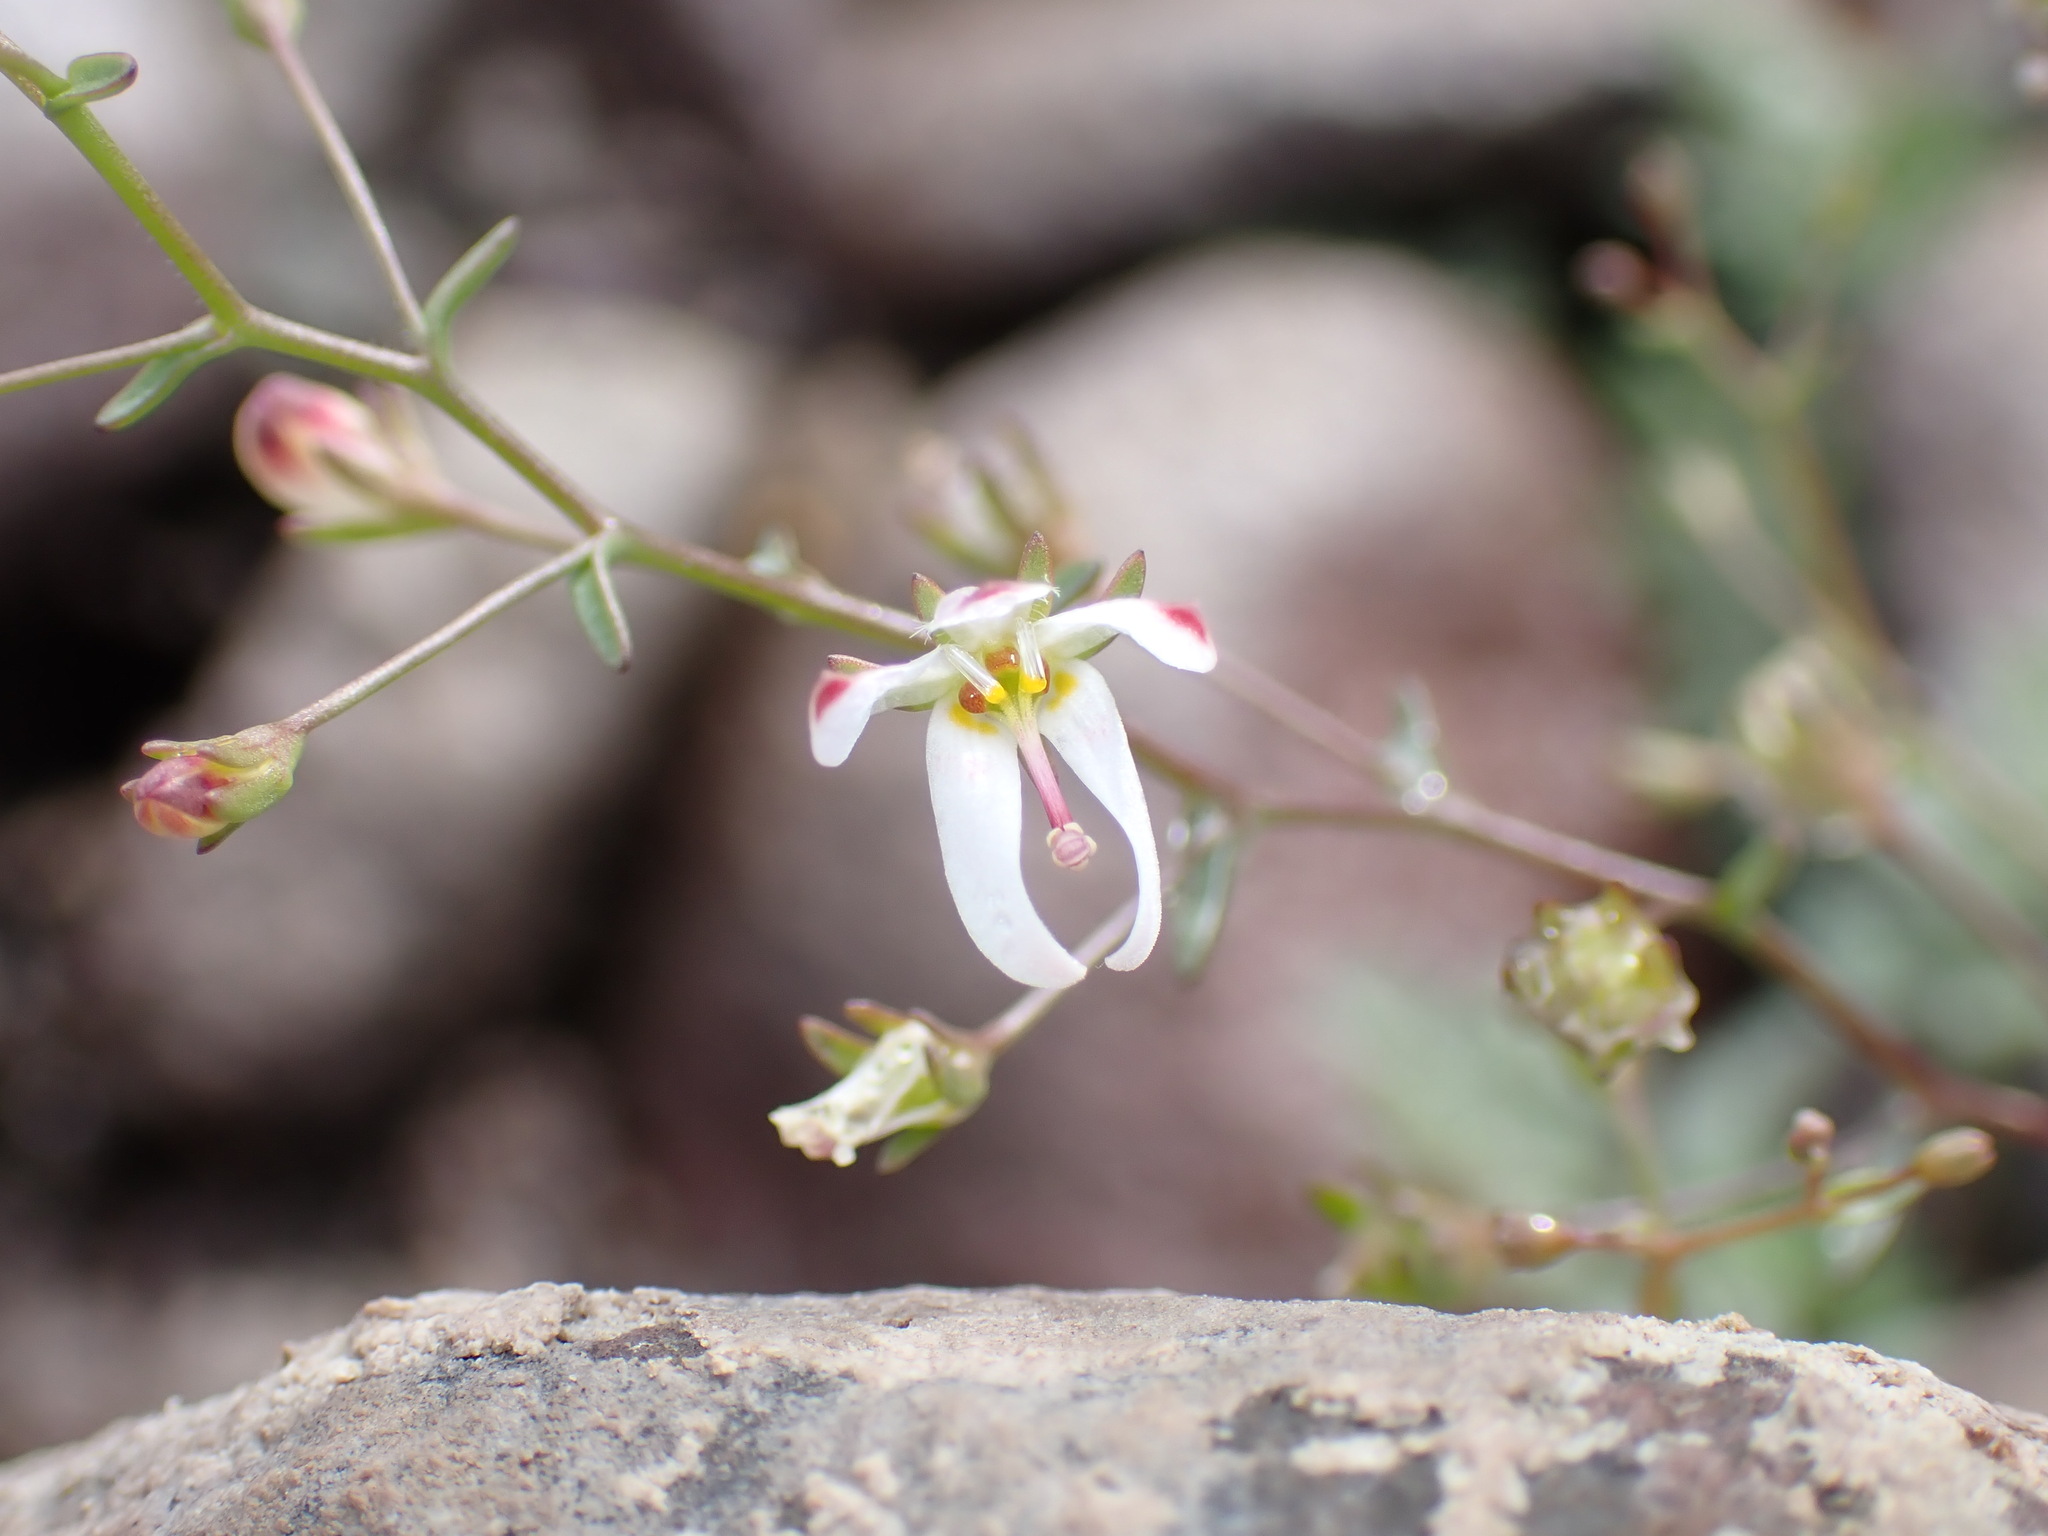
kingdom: Plantae
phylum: Tracheophyta
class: Magnoliopsida
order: Asterales
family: Campanulaceae
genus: Nemacladus
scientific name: Nemacladus orientalis
